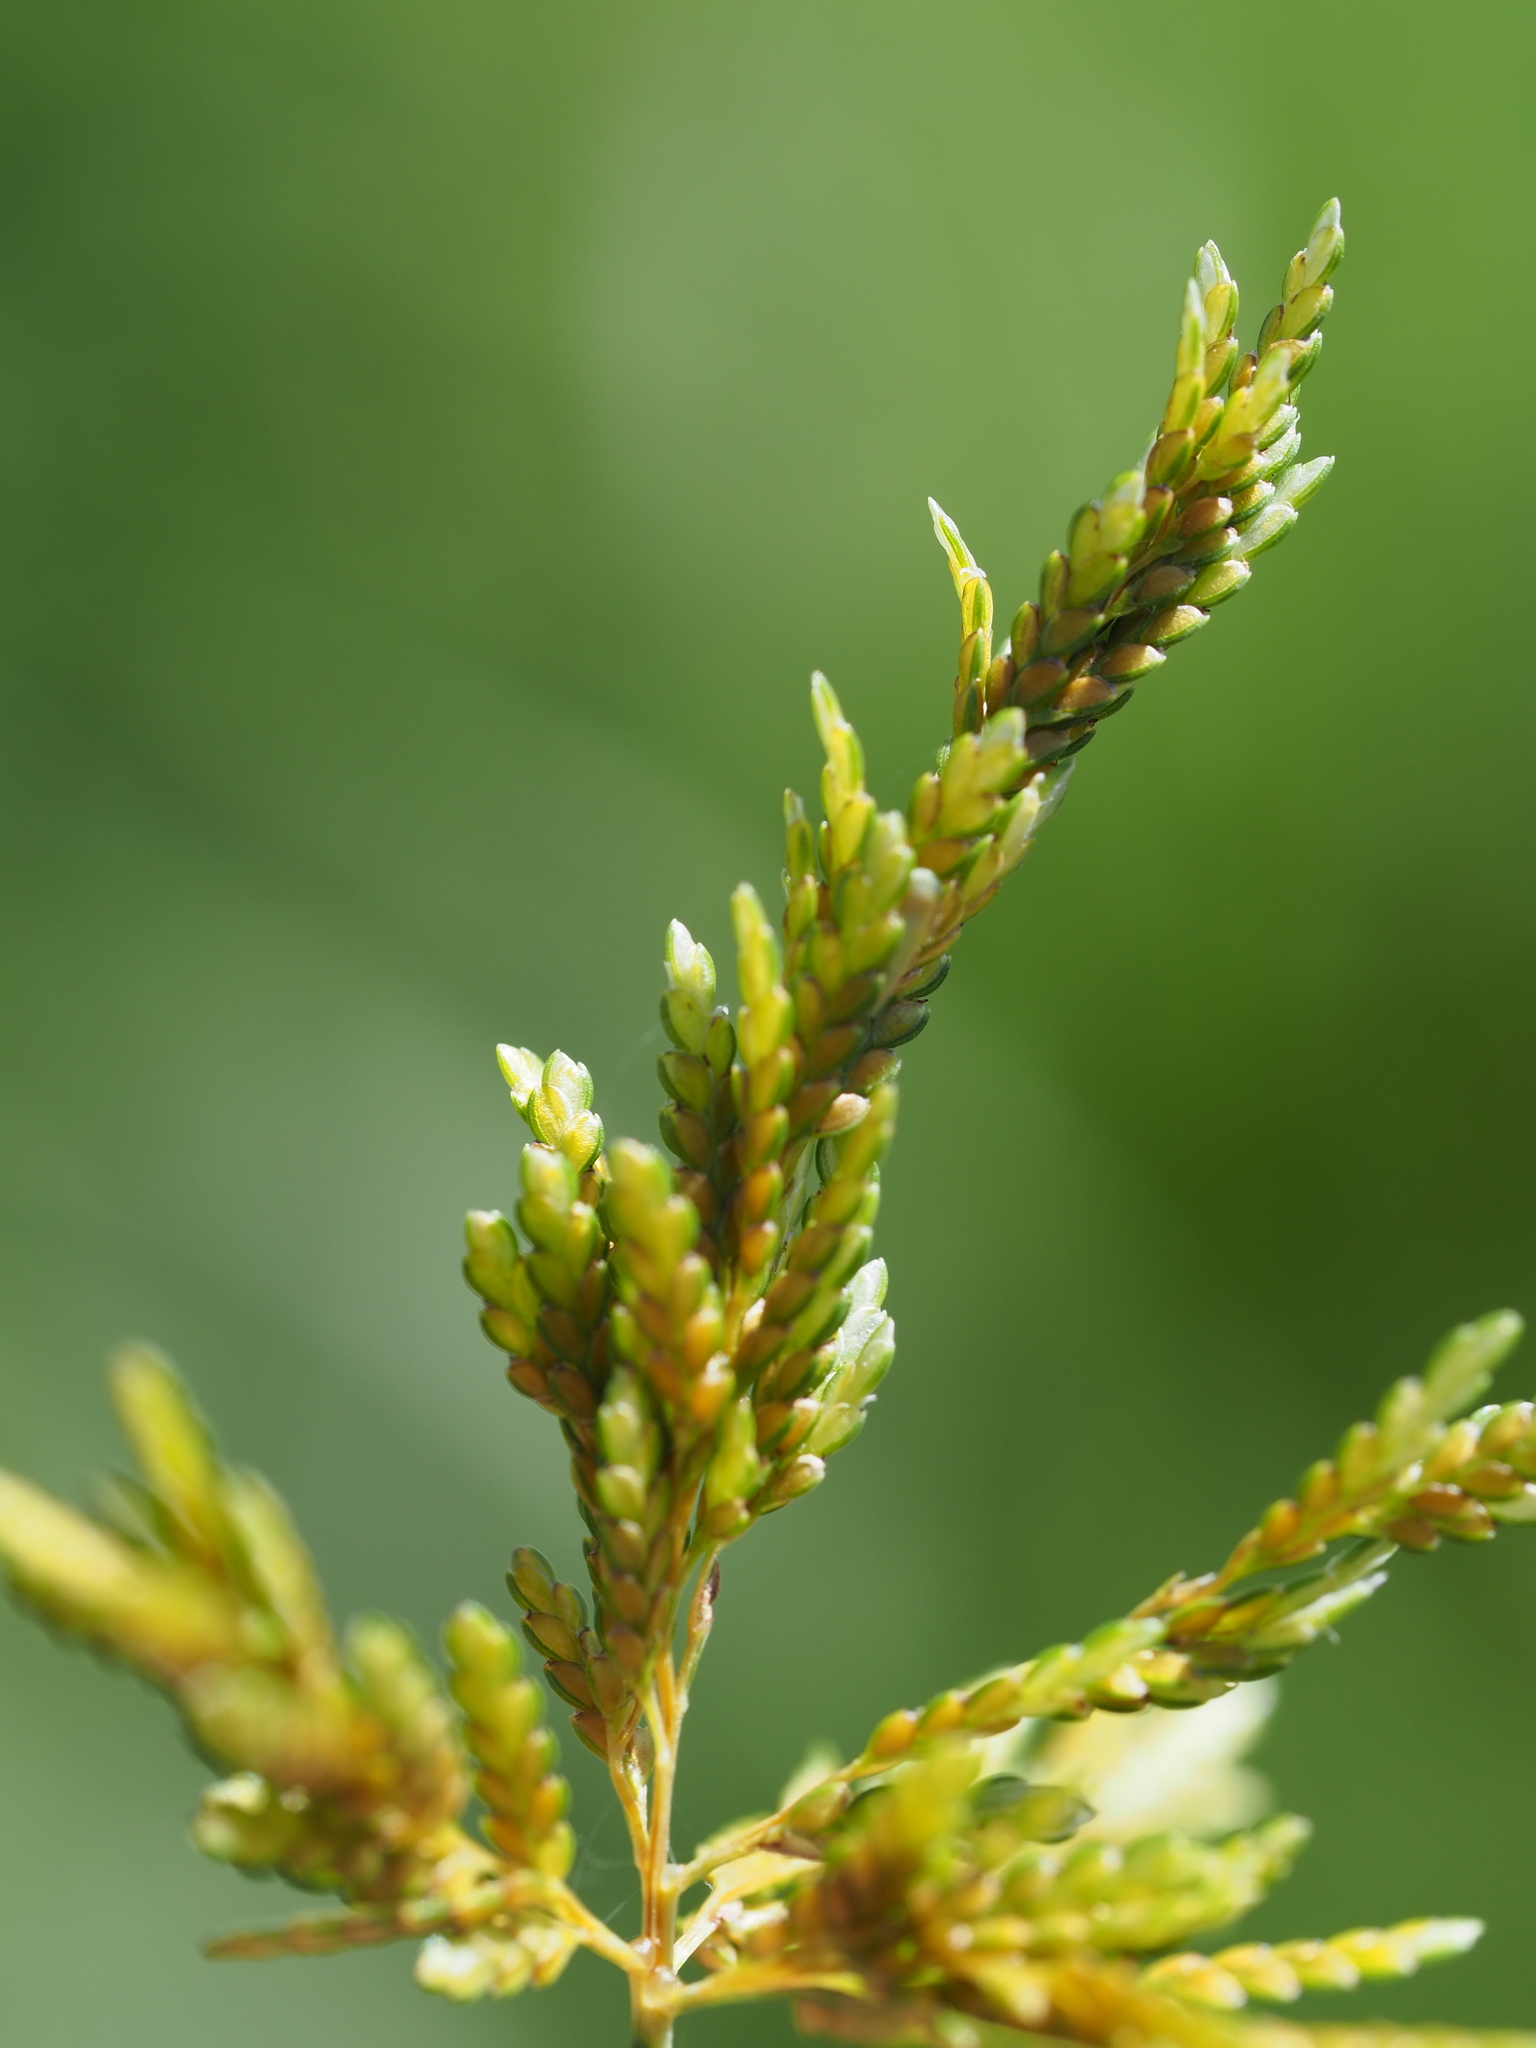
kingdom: Plantae
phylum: Tracheophyta
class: Liliopsida
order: Poales
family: Cyperaceae
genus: Cyperus
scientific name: Cyperus iria
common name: Ricefield flatsedge
